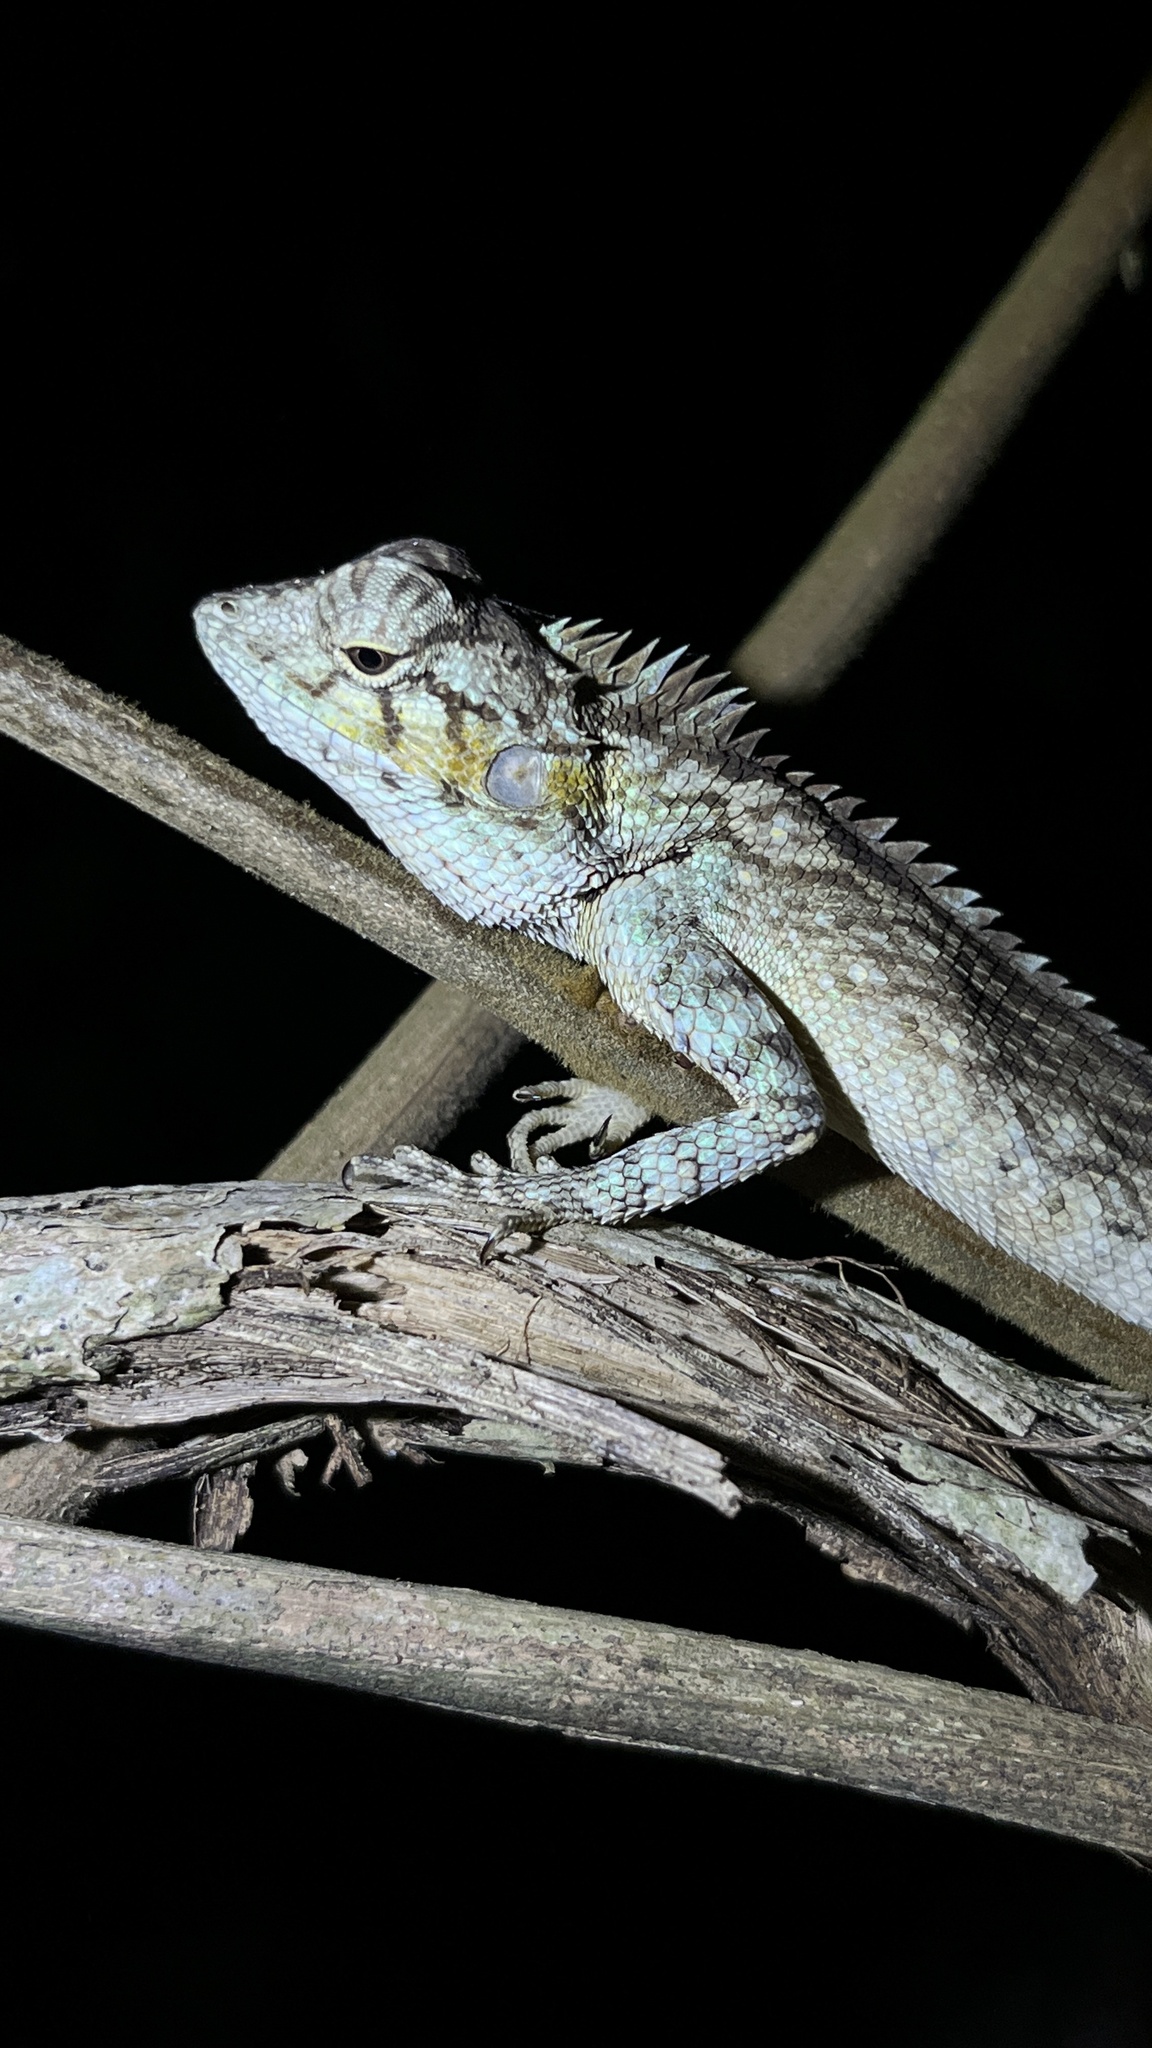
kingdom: Animalia
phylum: Chordata
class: Squamata
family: Agamidae
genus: Calotes
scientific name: Calotes bachae
